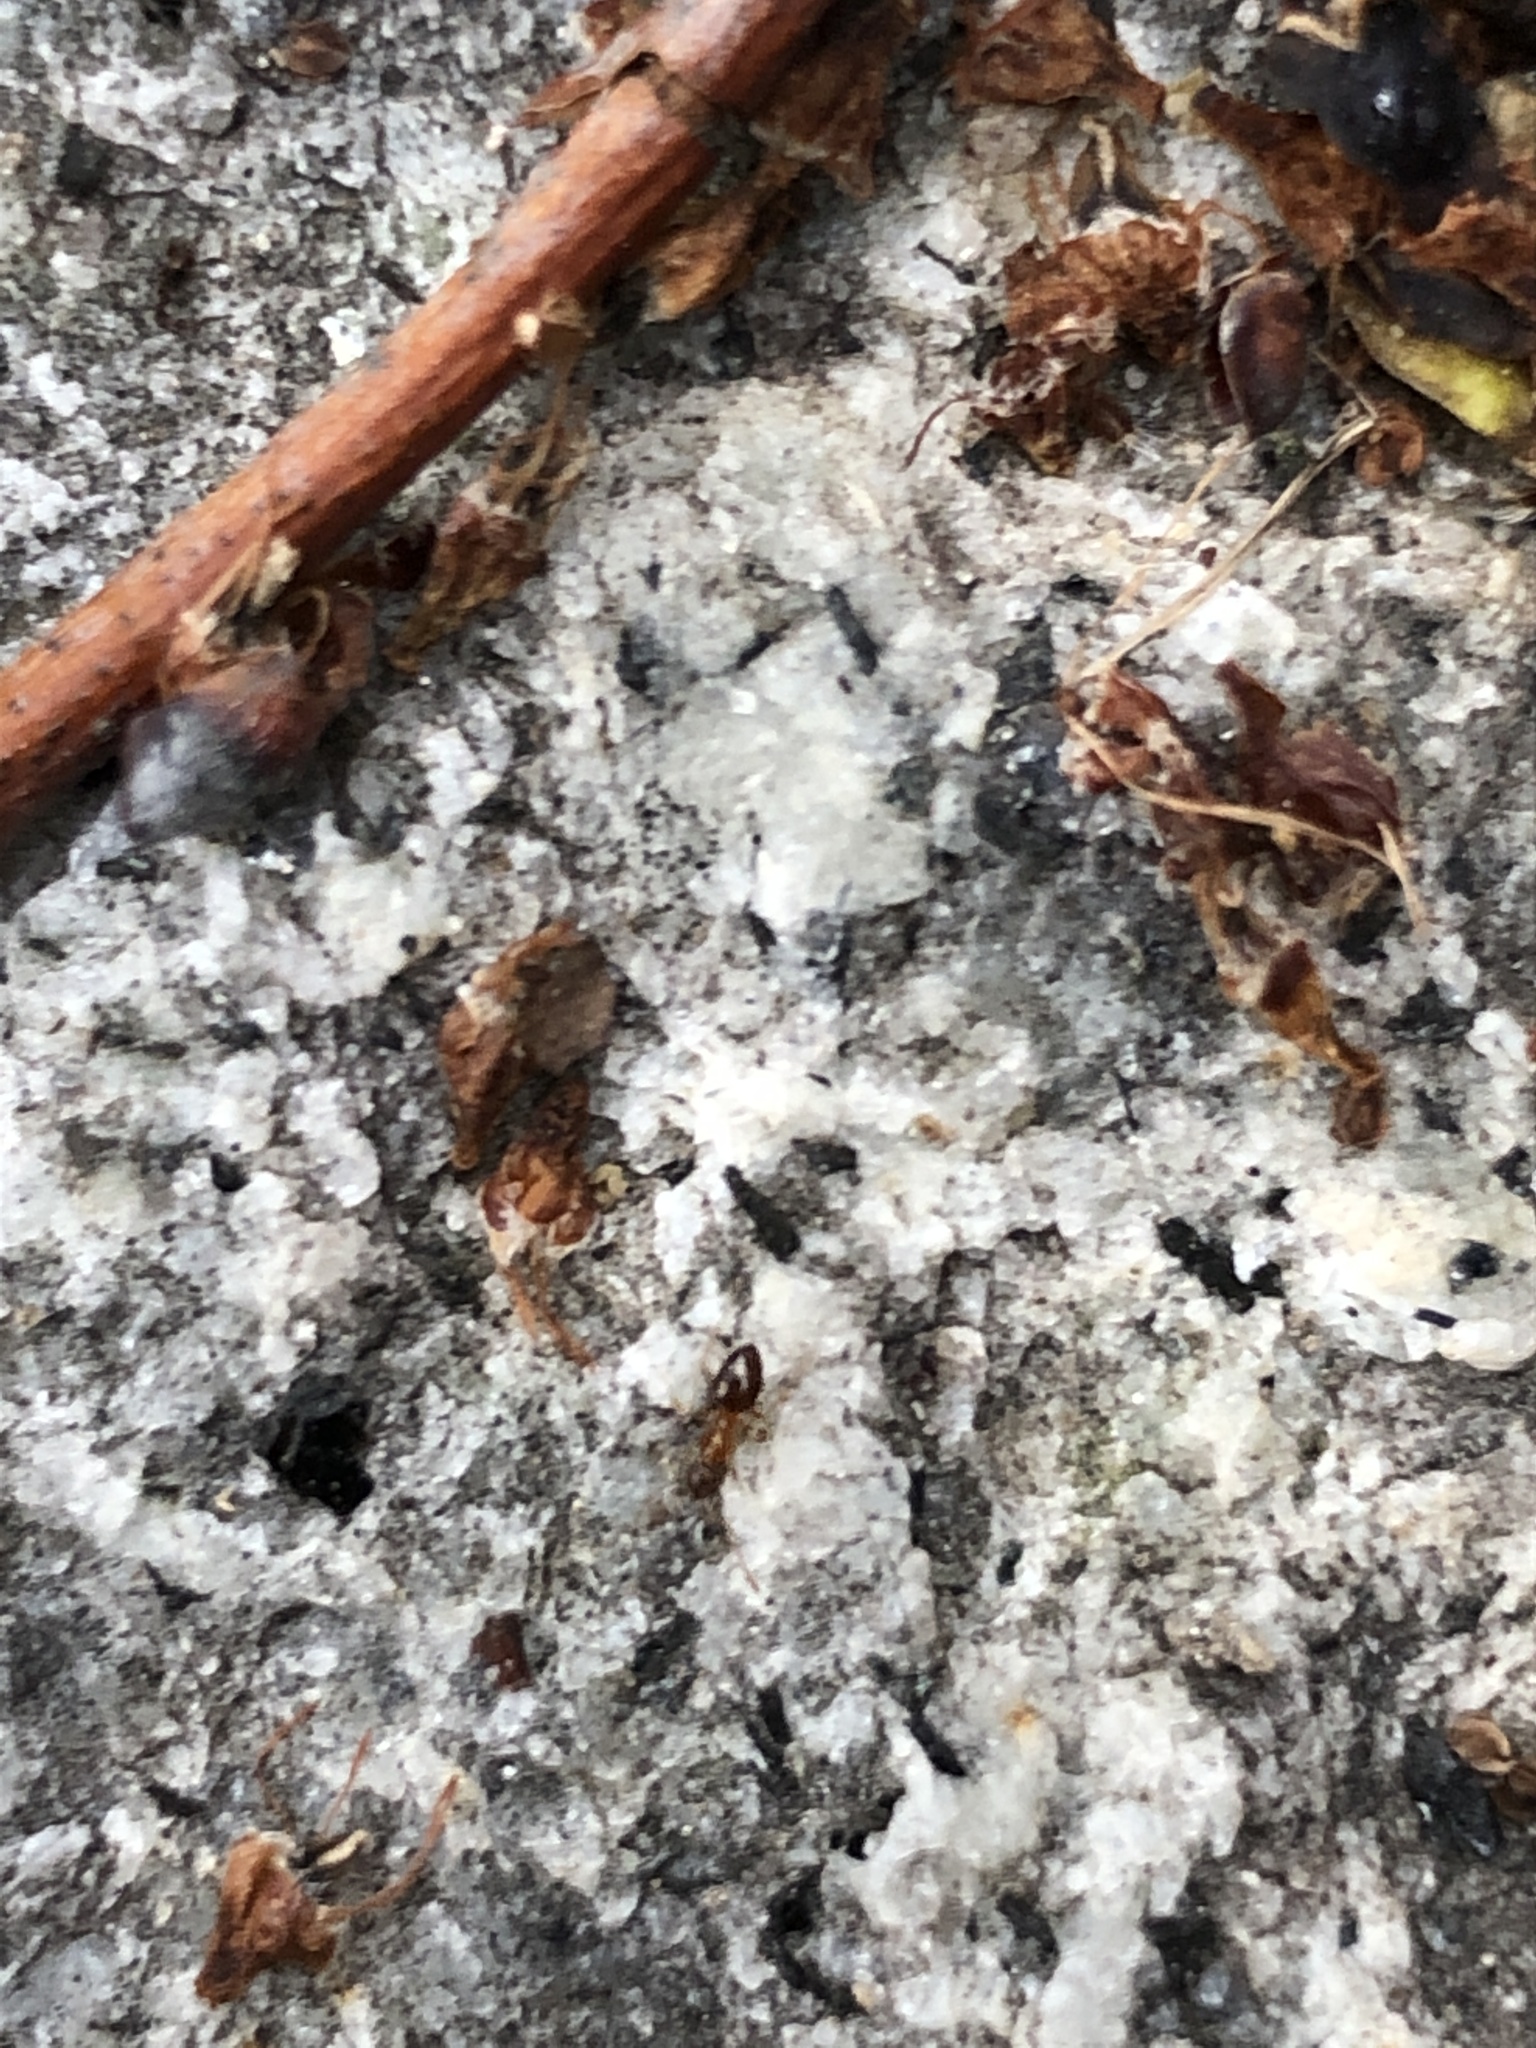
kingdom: Animalia
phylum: Arthropoda
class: Insecta
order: Hymenoptera
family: Formicidae
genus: Paratrechina
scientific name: Paratrechina flavipes
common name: Eastern asian formicine ant
